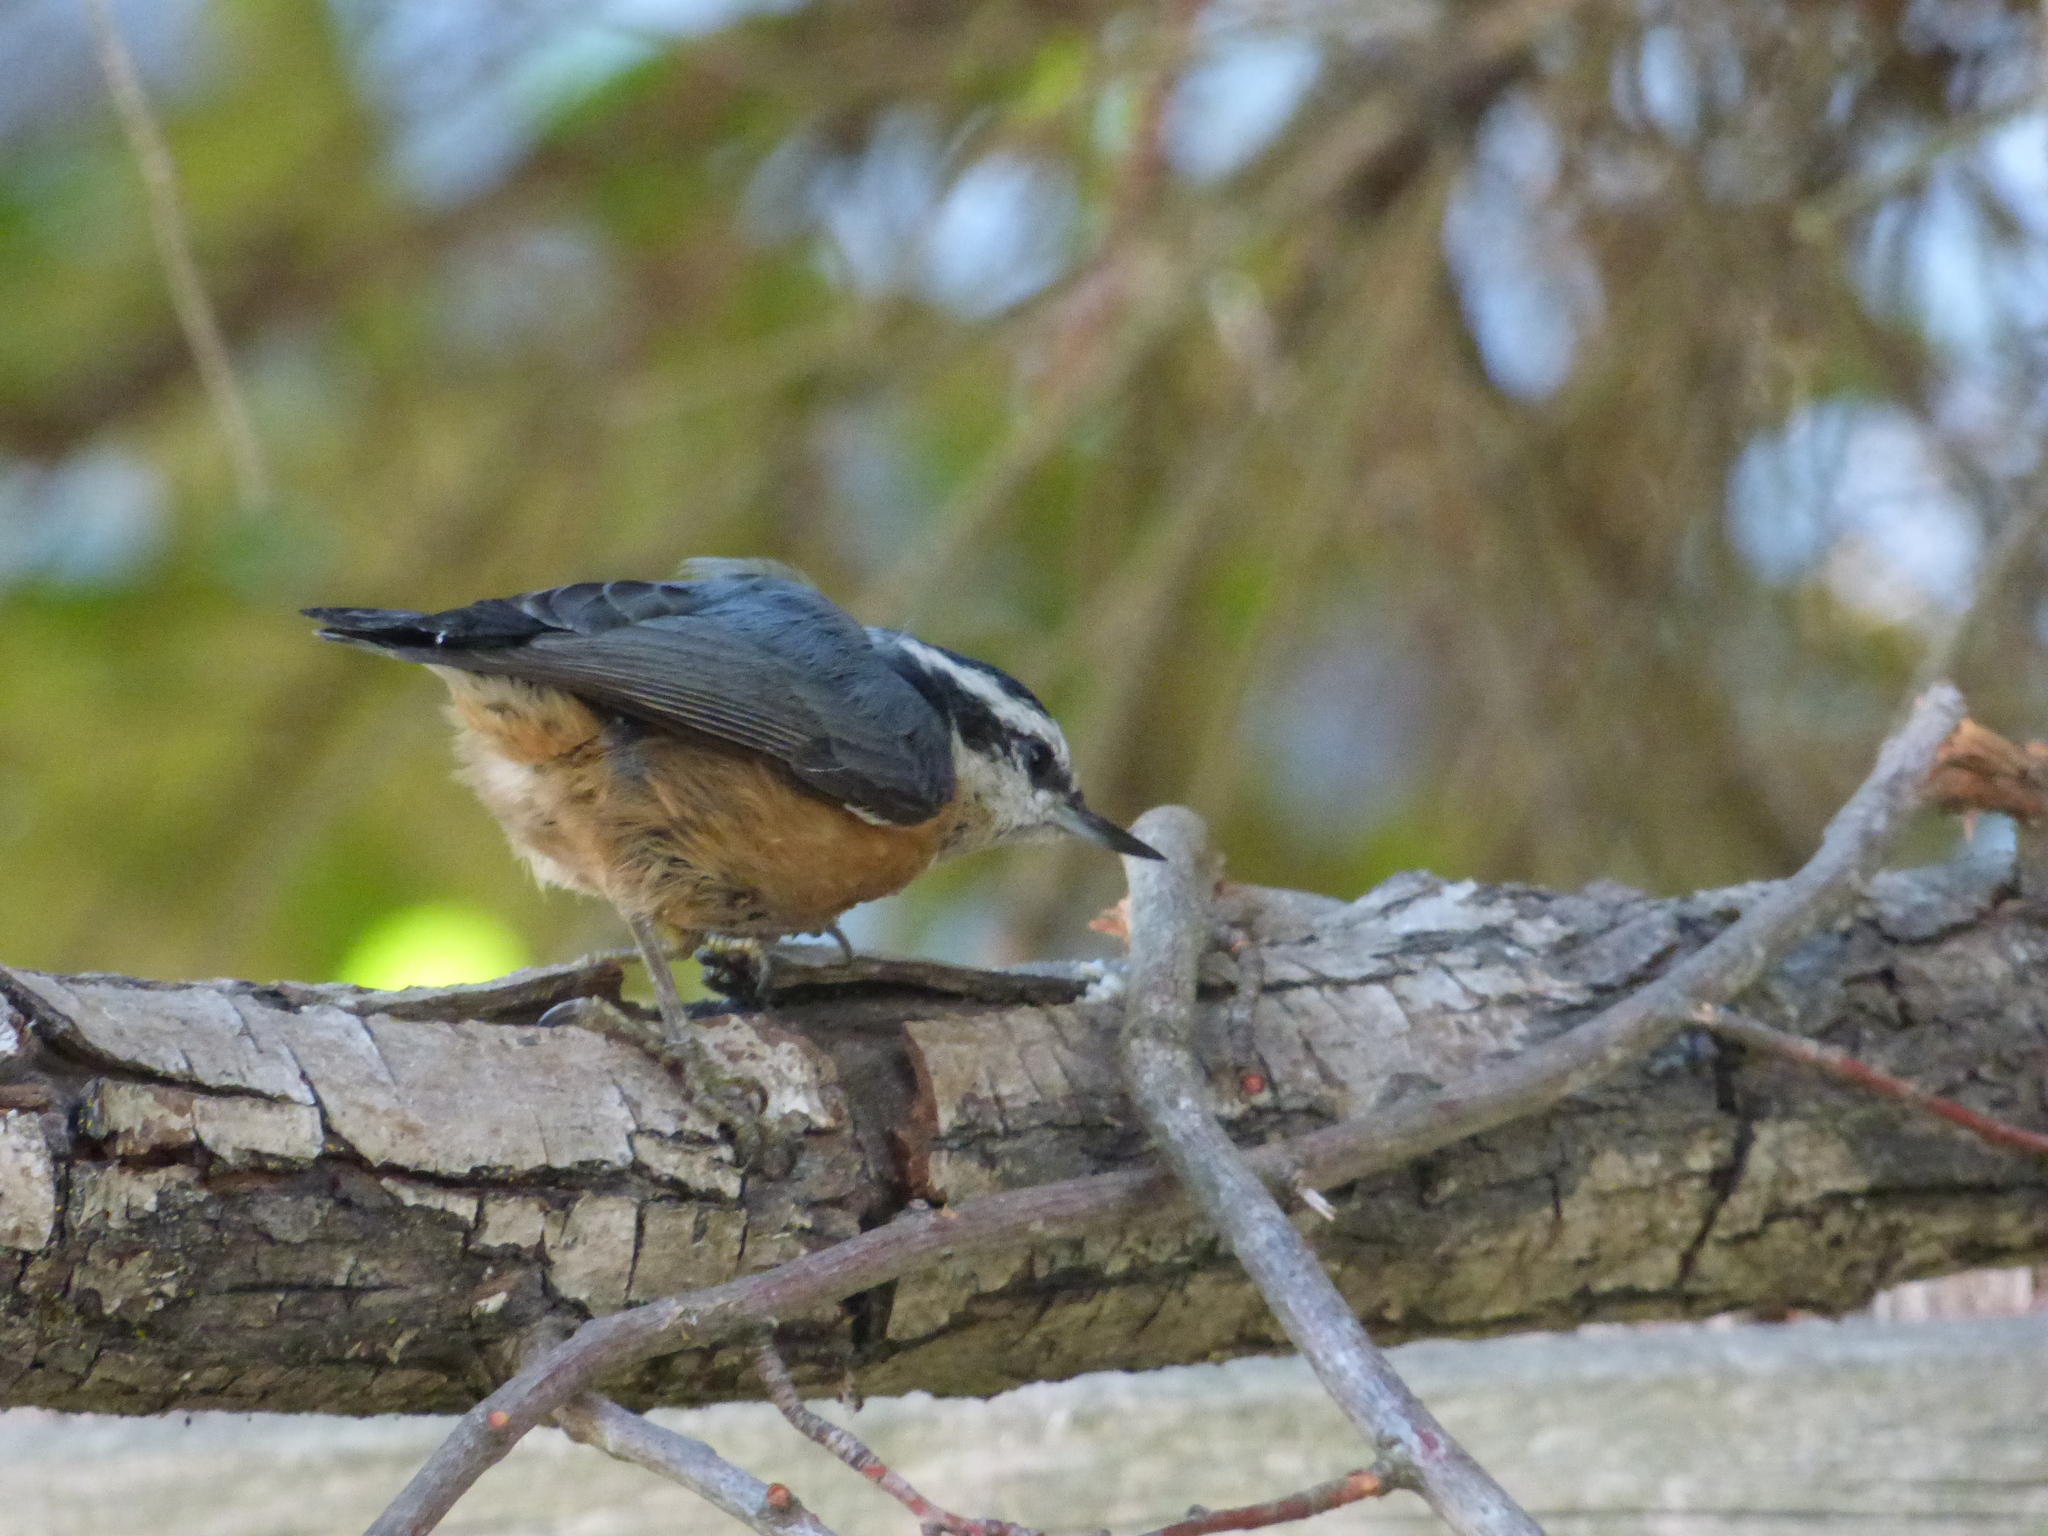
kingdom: Animalia
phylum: Chordata
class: Aves
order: Passeriformes
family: Sittidae
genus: Sitta
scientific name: Sitta canadensis
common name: Red-breasted nuthatch
